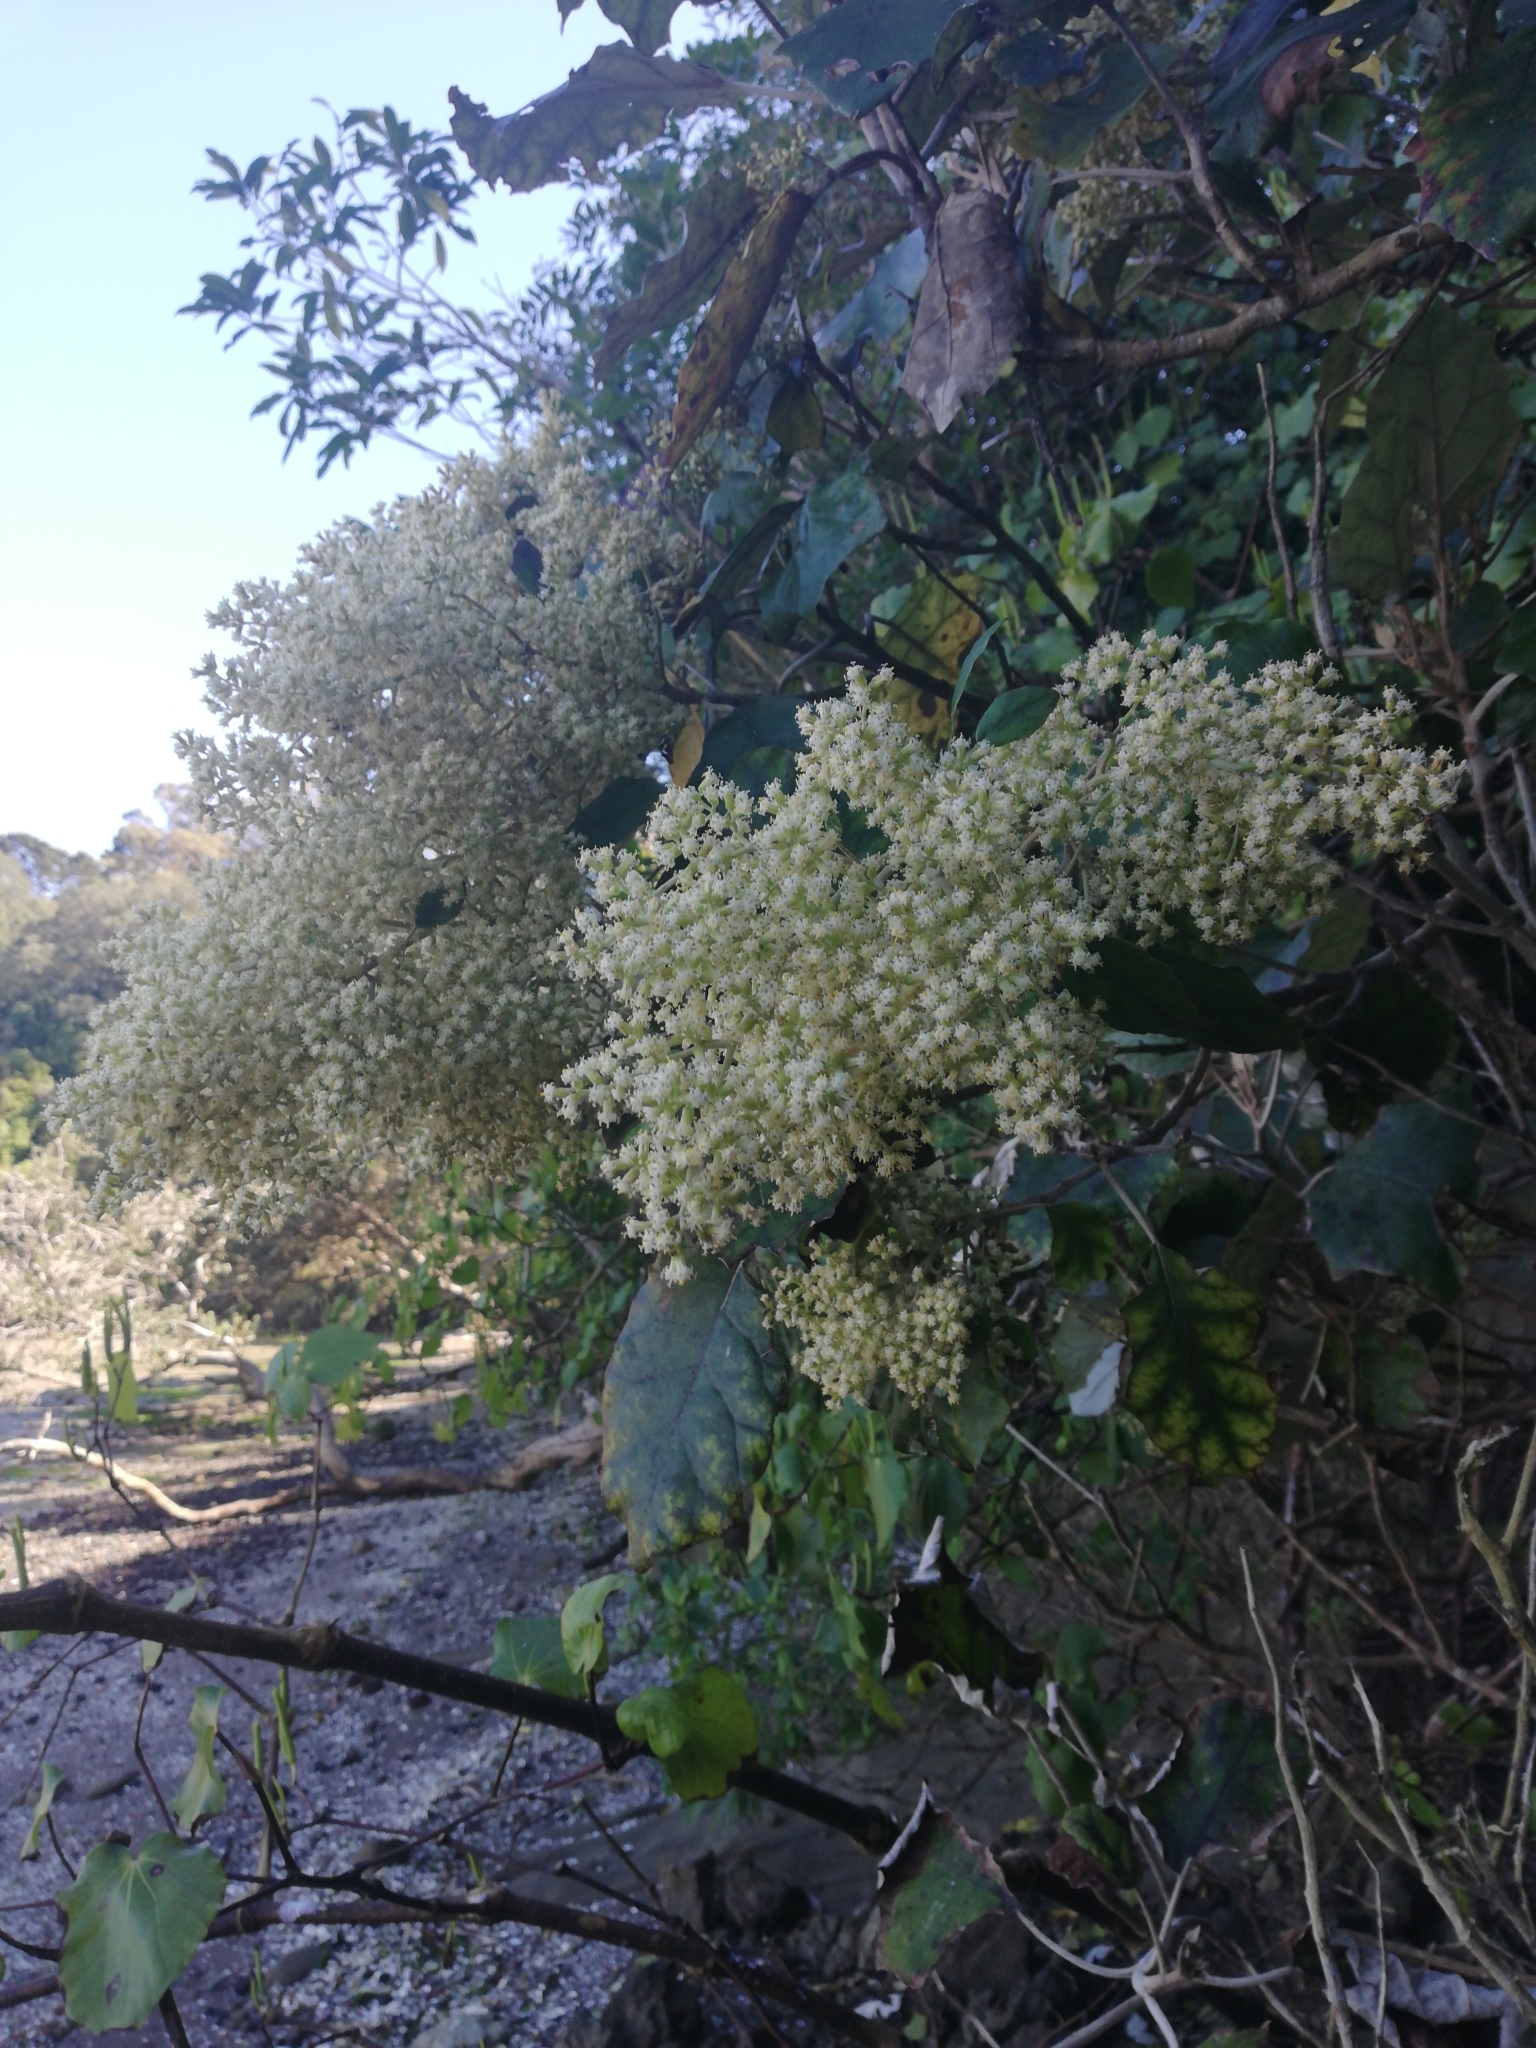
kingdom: Plantae
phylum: Tracheophyta
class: Magnoliopsida
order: Asterales
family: Asteraceae
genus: Brachyglottis
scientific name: Brachyglottis repanda
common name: Hedge ragwort
